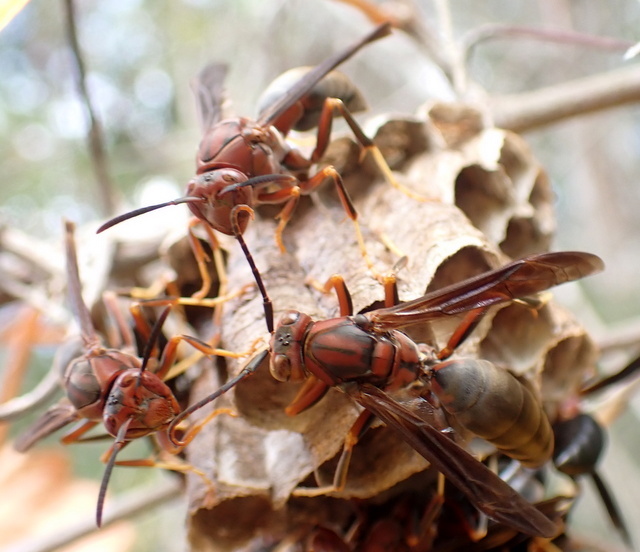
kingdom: Animalia
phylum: Arthropoda
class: Insecta
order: Hymenoptera
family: Eumenidae
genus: Polistes
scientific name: Polistes metricus
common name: Metric paper wasp
